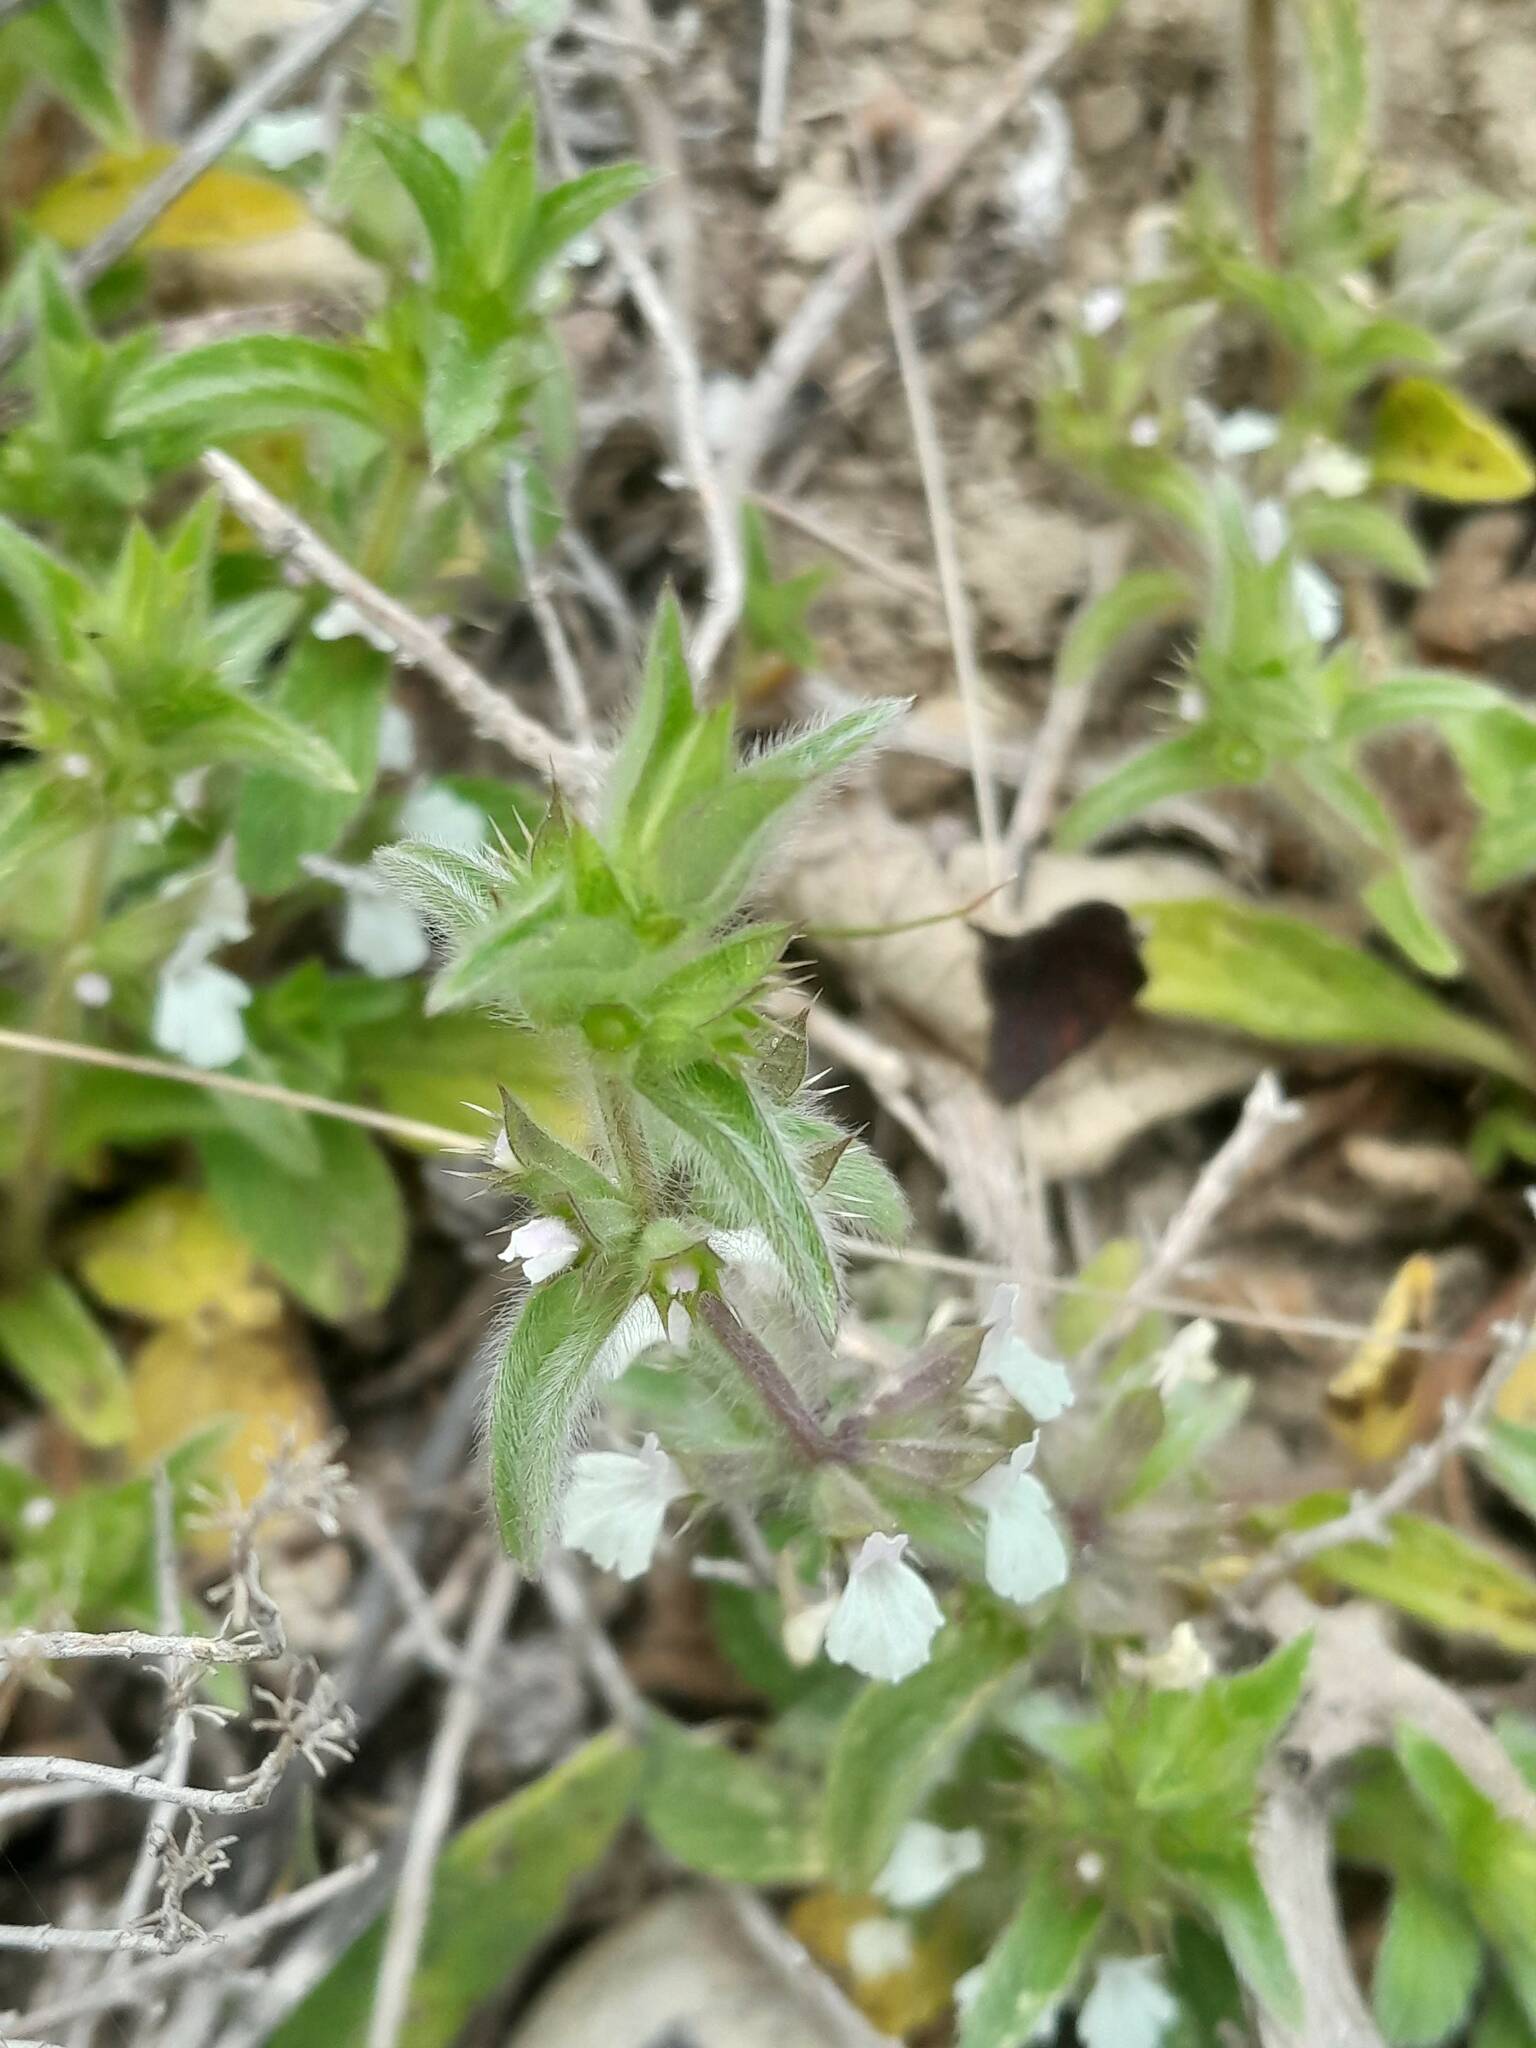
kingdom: Plantae
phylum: Tracheophyta
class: Magnoliopsida
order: Lamiales
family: Lamiaceae
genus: Sideritis
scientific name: Sideritis romana
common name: Simplebeak ironwort
